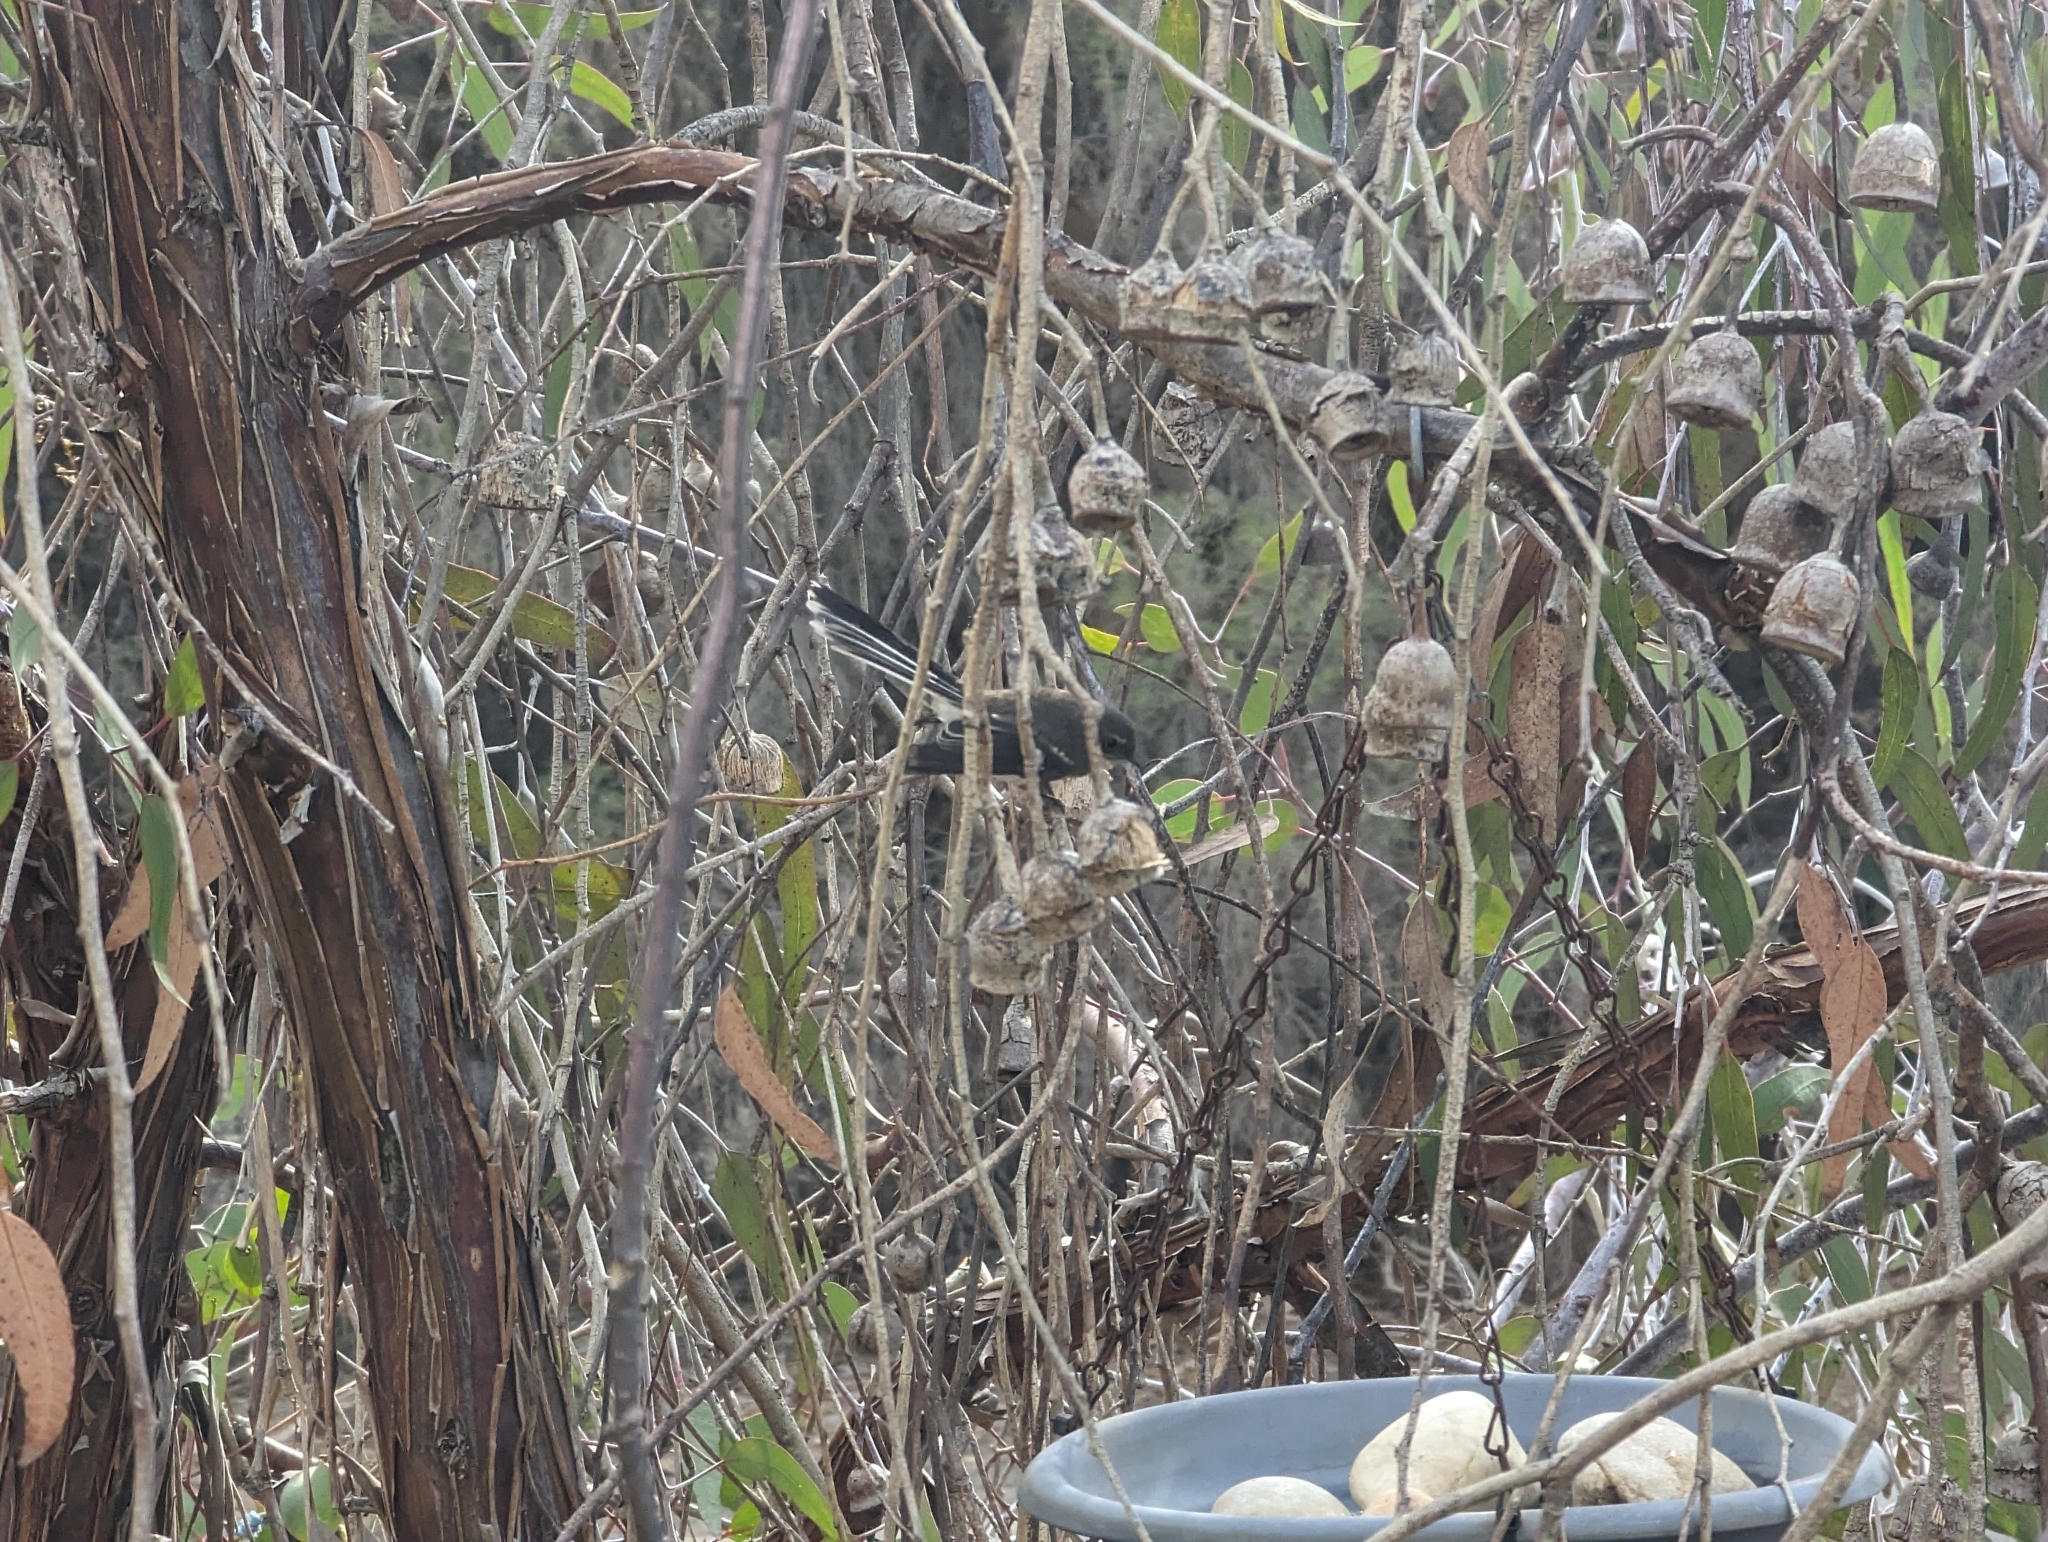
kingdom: Animalia
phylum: Chordata
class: Aves
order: Passeriformes
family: Rhipiduridae
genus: Rhipidura
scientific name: Rhipidura albiscapa
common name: Grey fantail
